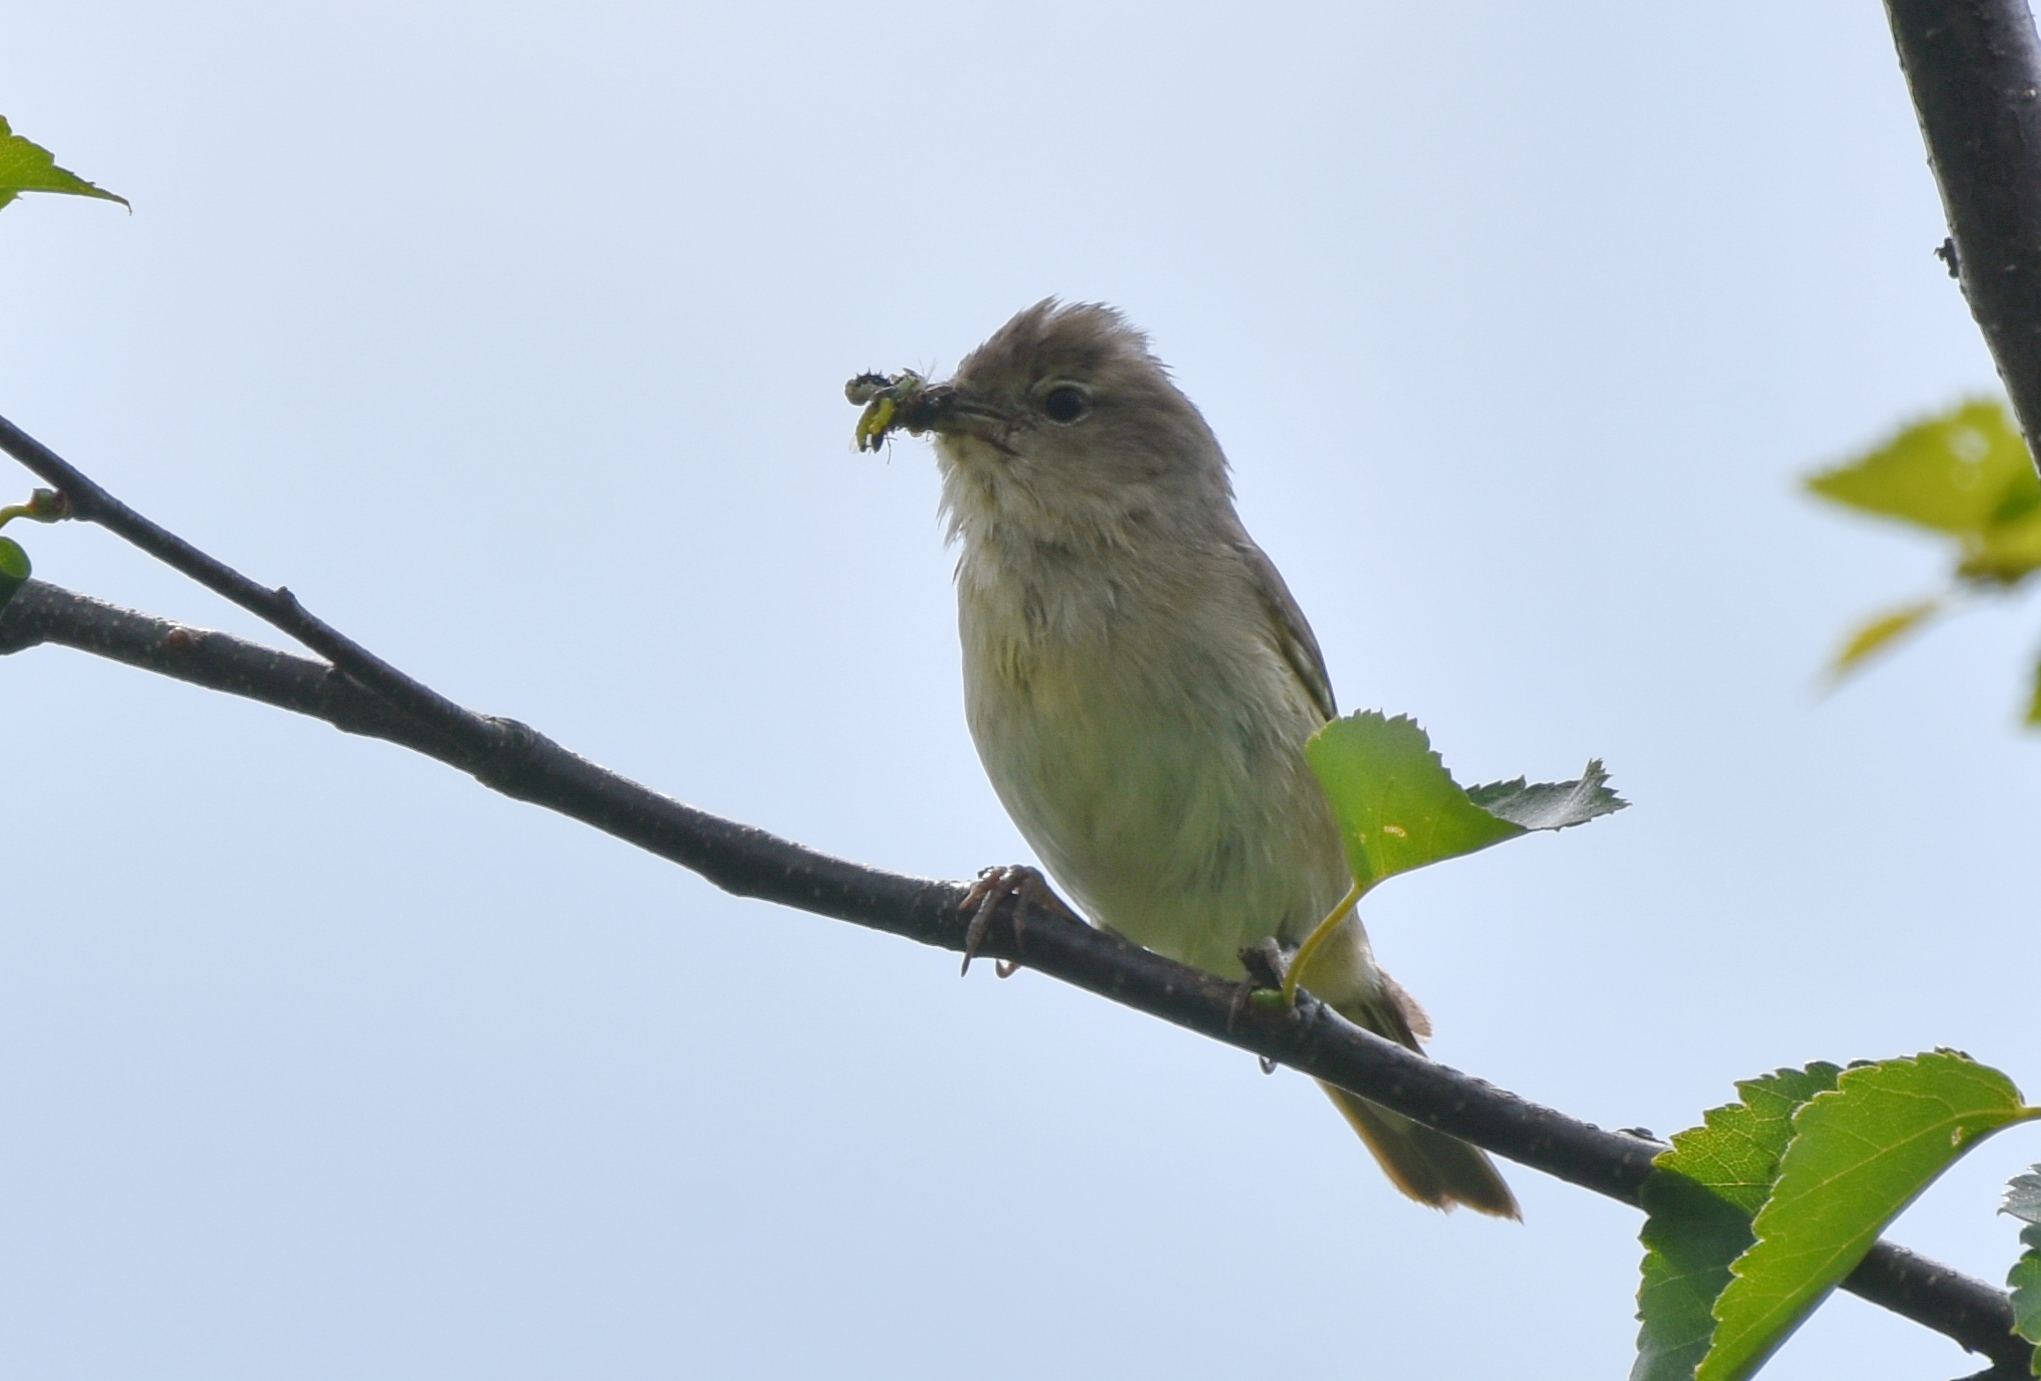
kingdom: Animalia
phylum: Chordata
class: Aves
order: Passeriformes
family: Acrocephalidae
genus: Iduna
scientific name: Iduna caligata
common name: Booted warbler
